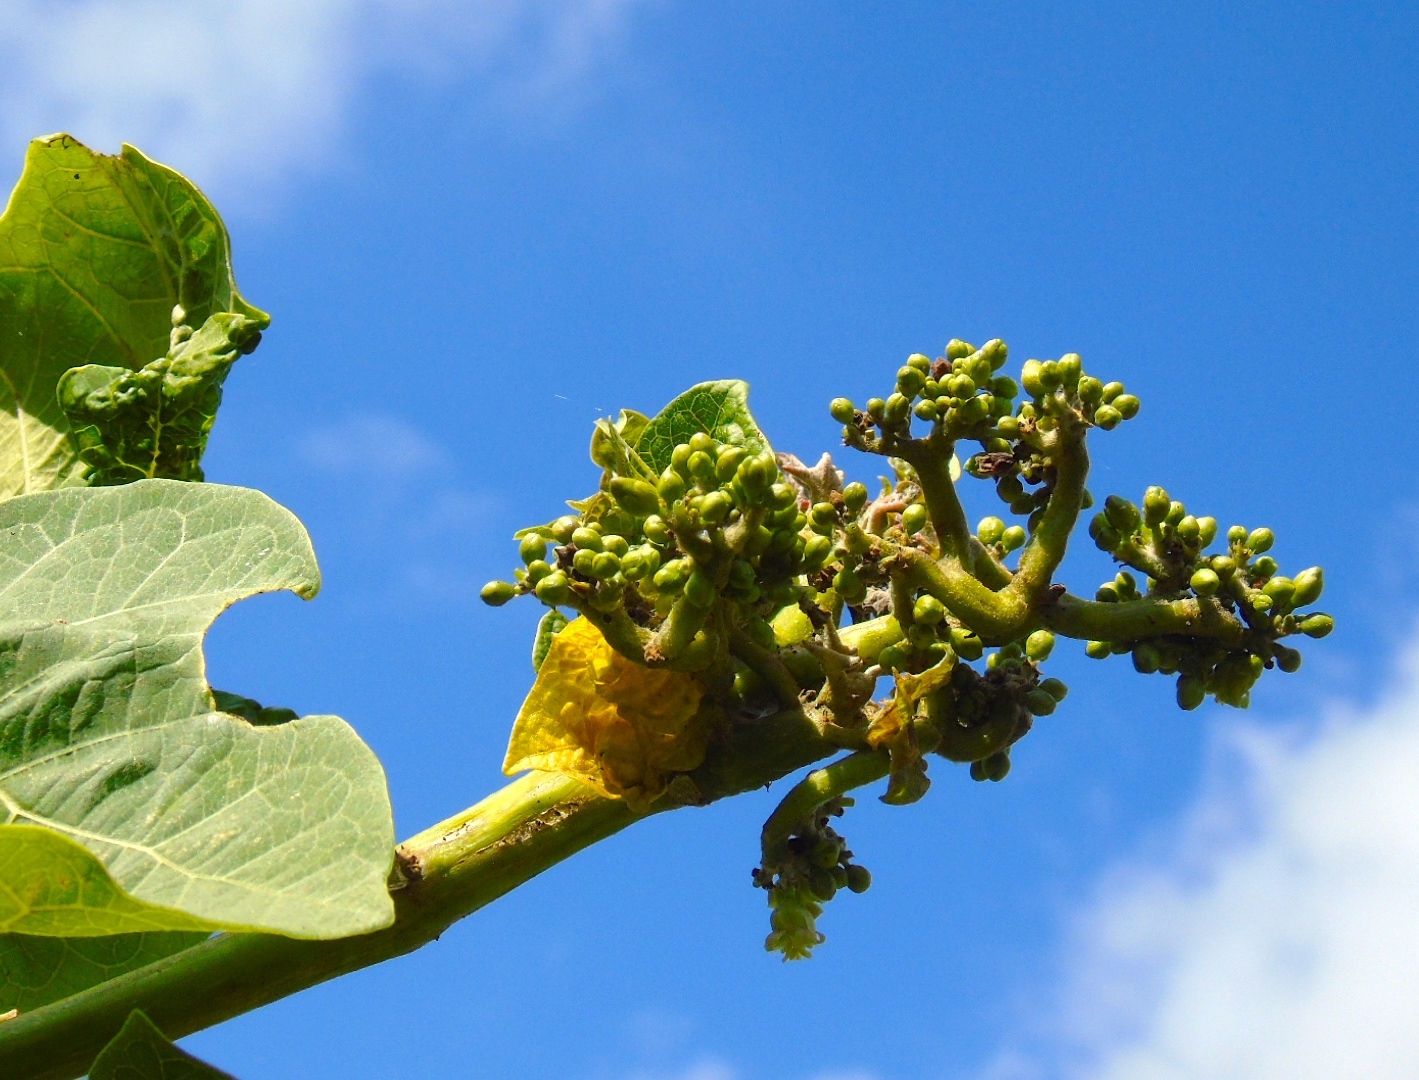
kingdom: Plantae
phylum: Tracheophyta
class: Magnoliopsida
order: Malpighiales
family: Euphorbiaceae
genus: Jatropha
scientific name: Jatropha curcas
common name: Barbados nut
